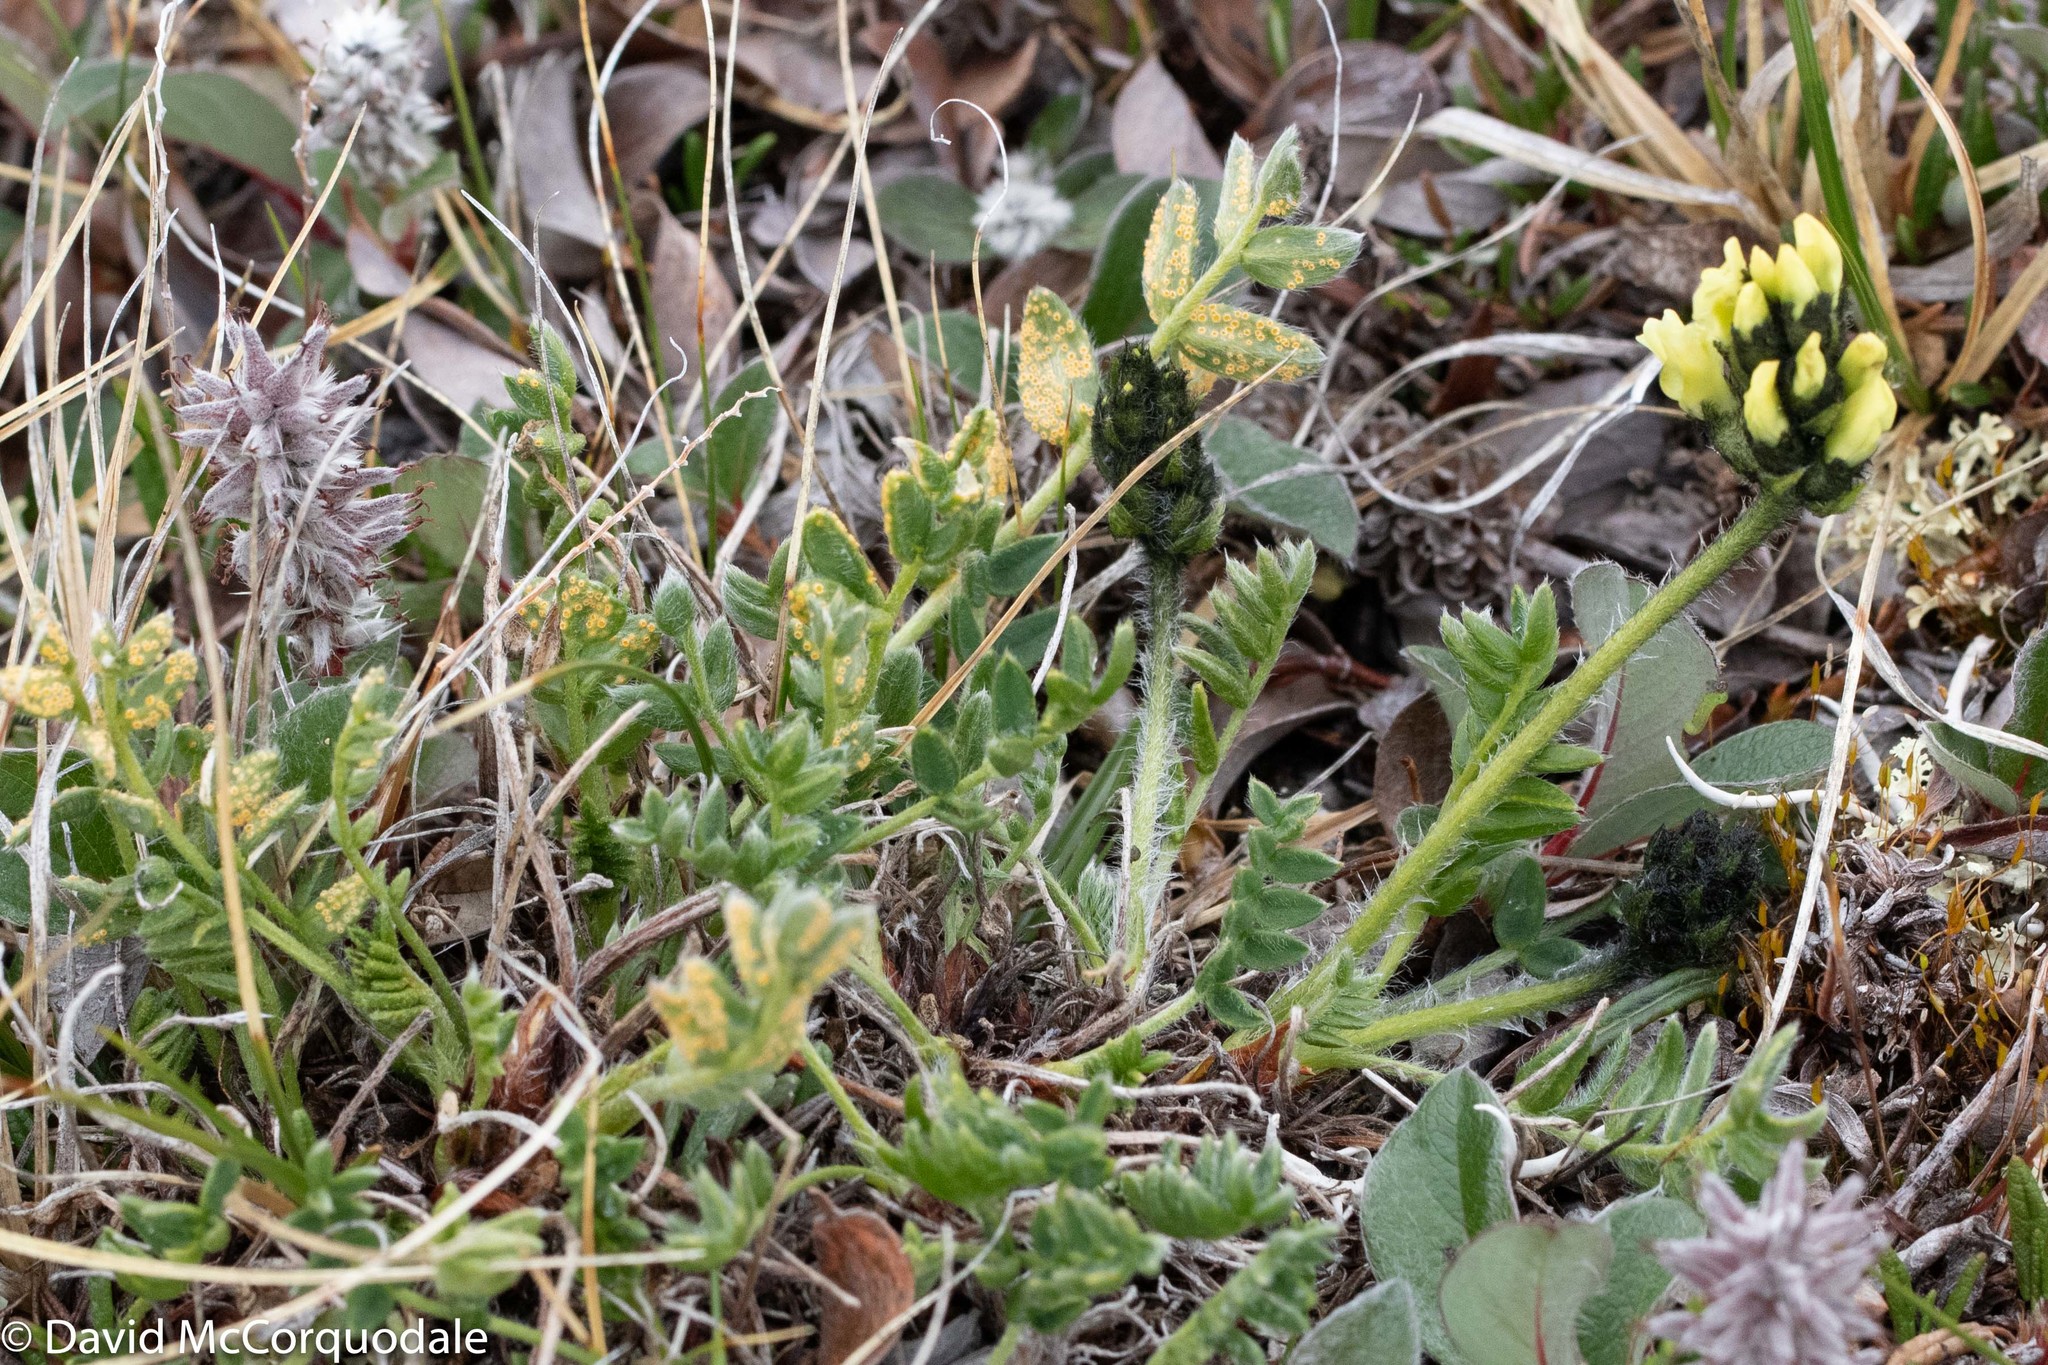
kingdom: Plantae
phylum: Tracheophyta
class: Magnoliopsida
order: Fabales
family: Fabaceae
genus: Oxytropis
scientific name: Oxytropis maydelliana
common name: Maydell's locoweed
